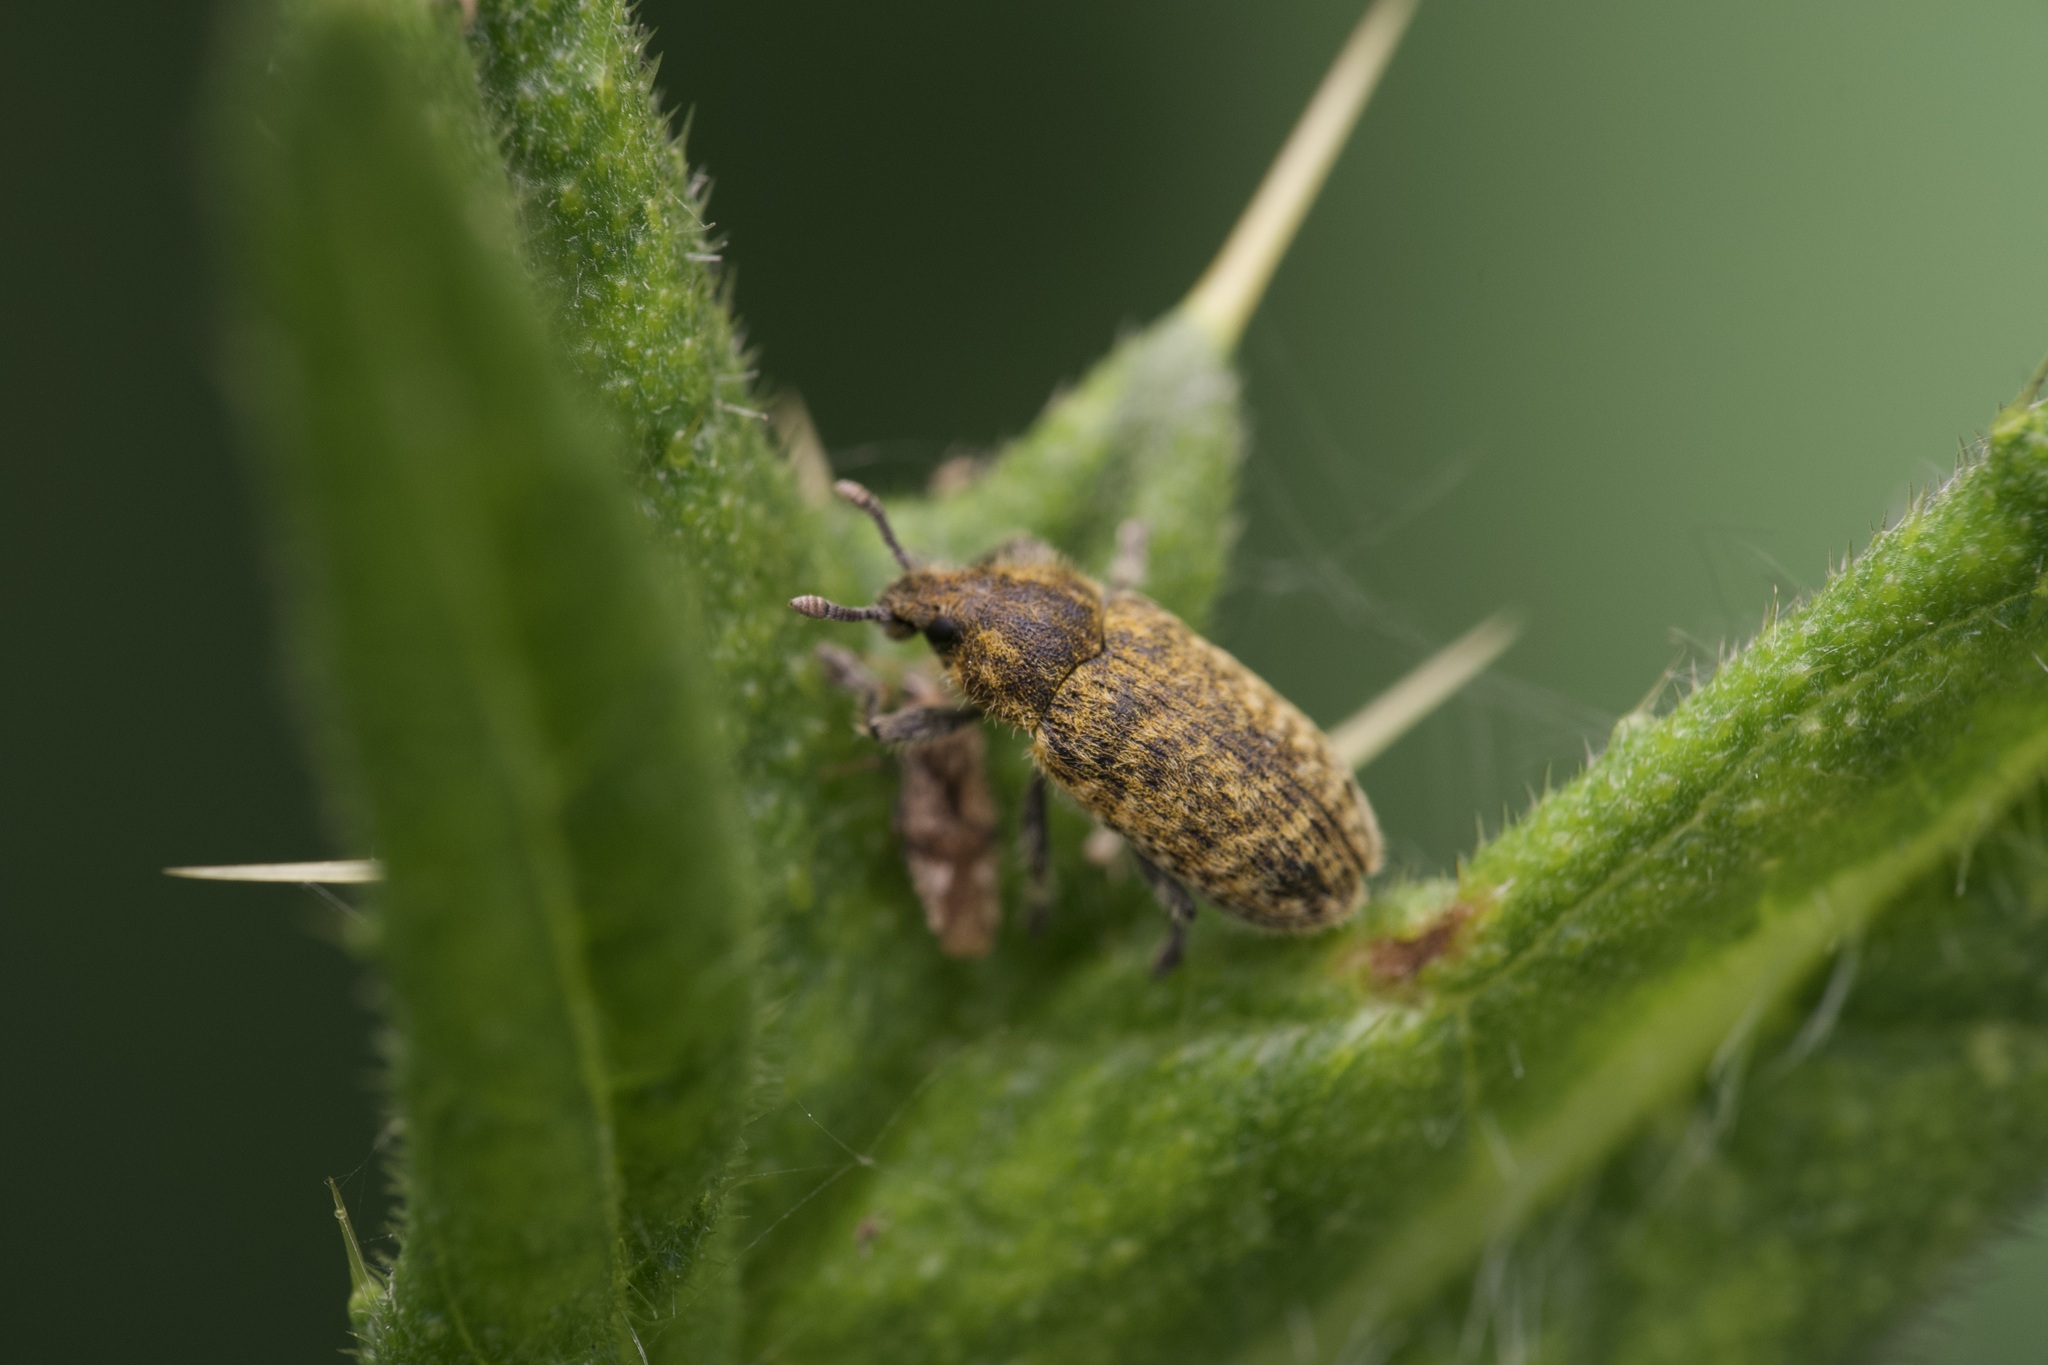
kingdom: Animalia
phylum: Arthropoda
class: Insecta
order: Coleoptera
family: Curculionidae
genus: Rhinocyllus
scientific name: Rhinocyllus conicus
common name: Weevil
